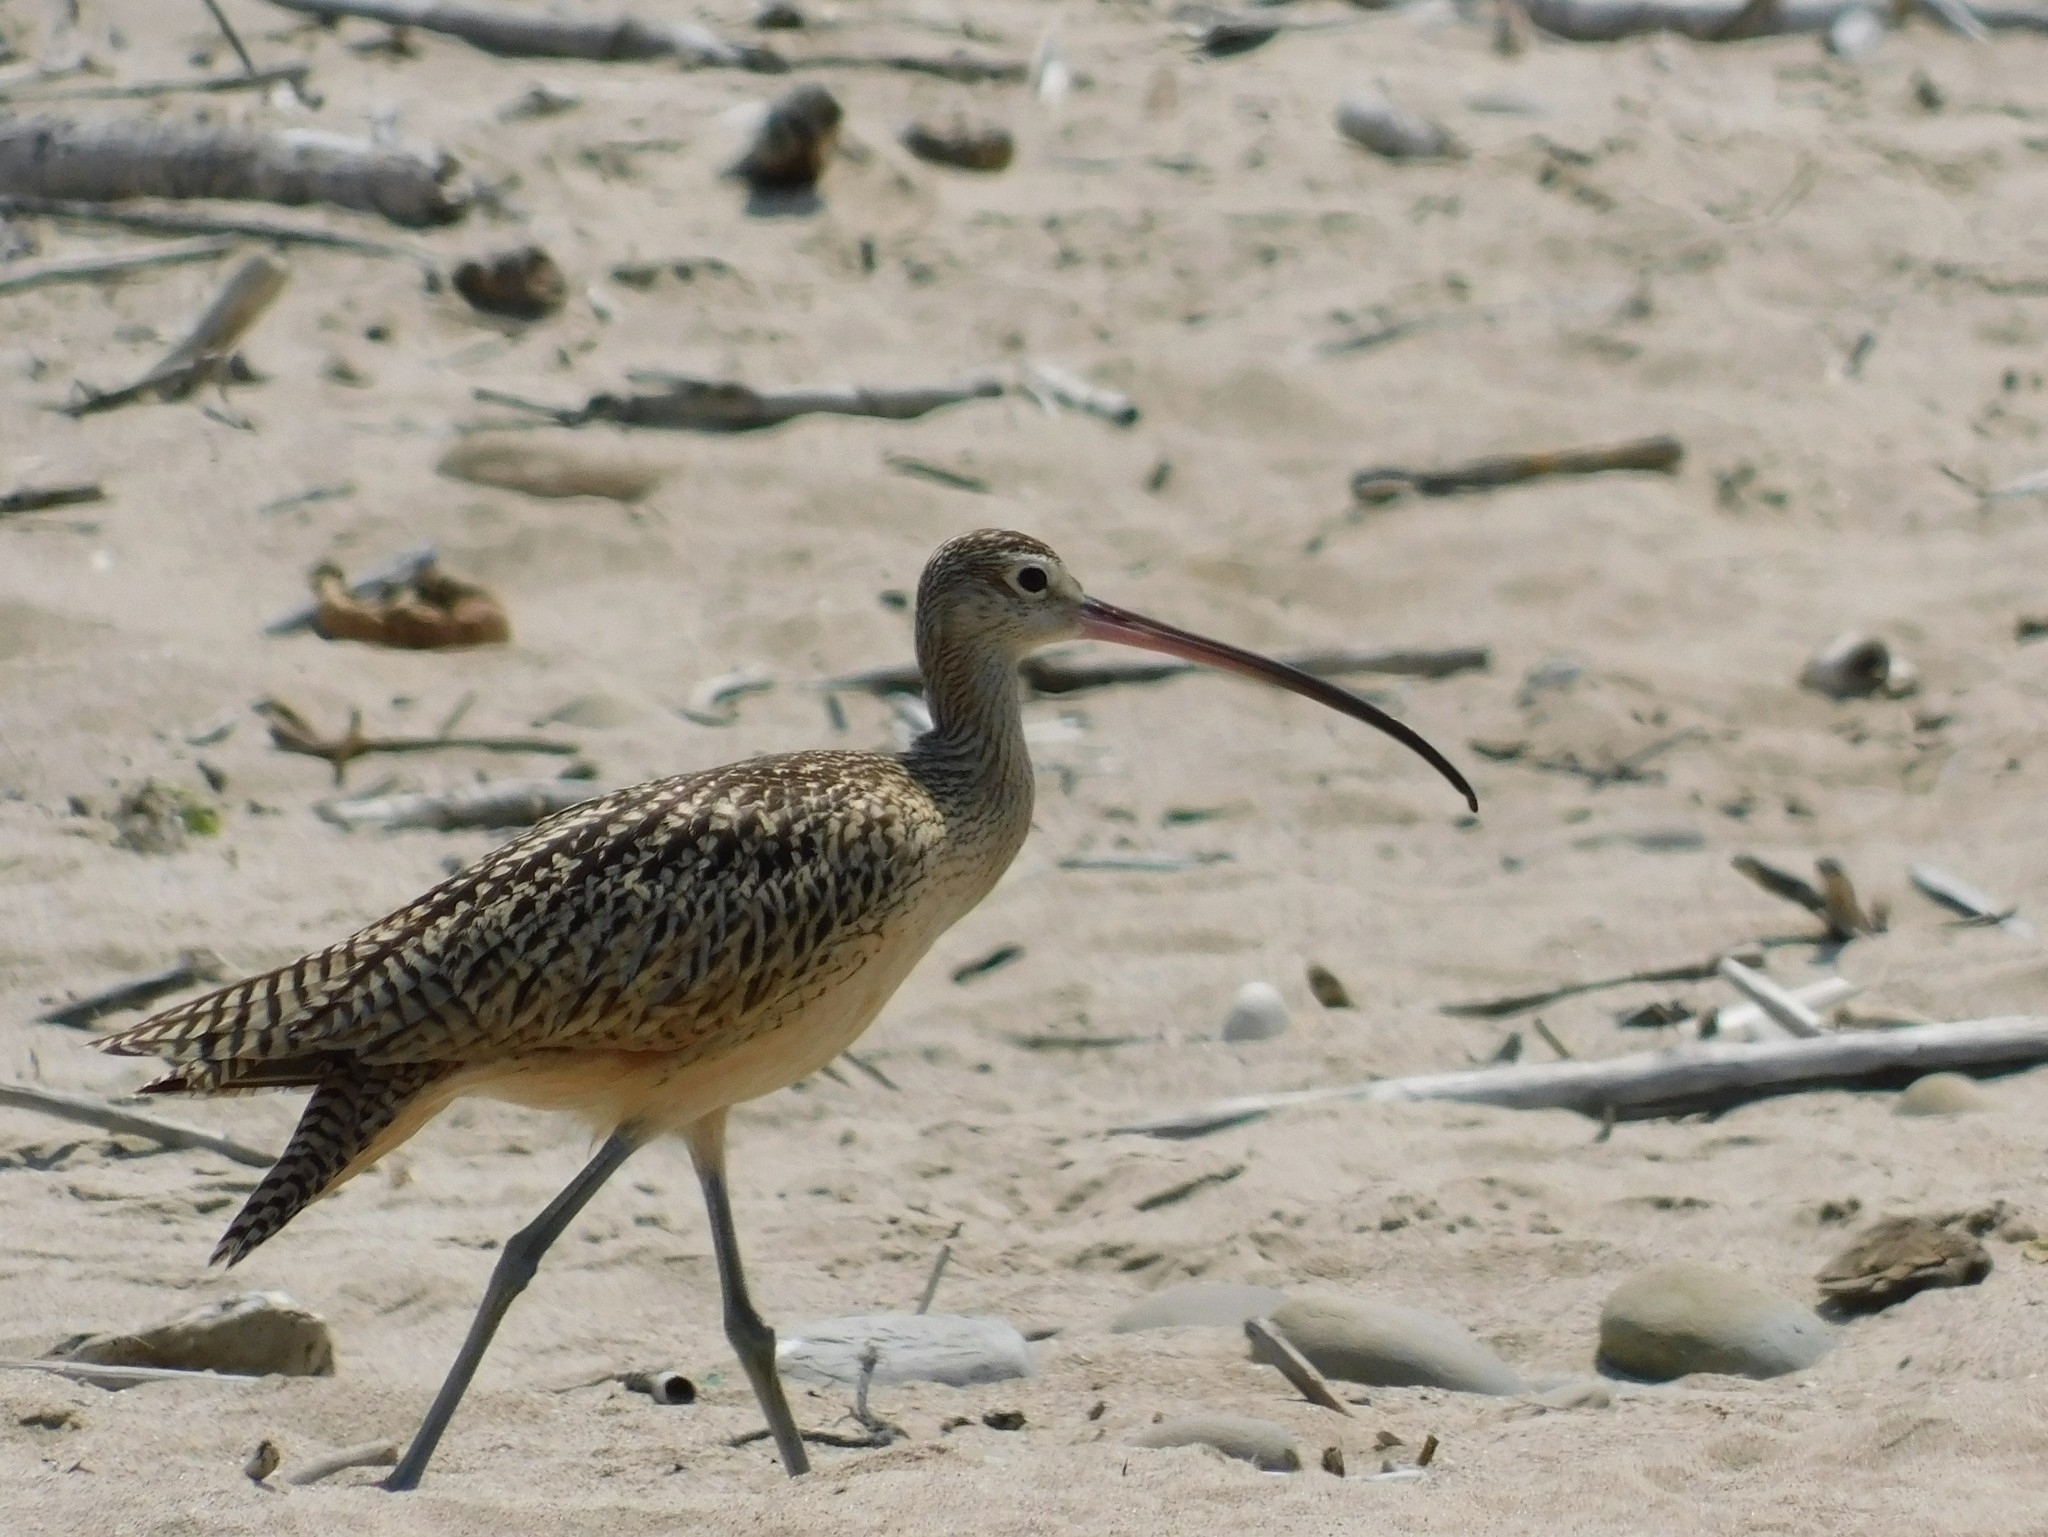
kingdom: Animalia
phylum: Chordata
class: Aves
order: Charadriiformes
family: Scolopacidae
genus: Numenius
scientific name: Numenius americanus
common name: Long-billed curlew
